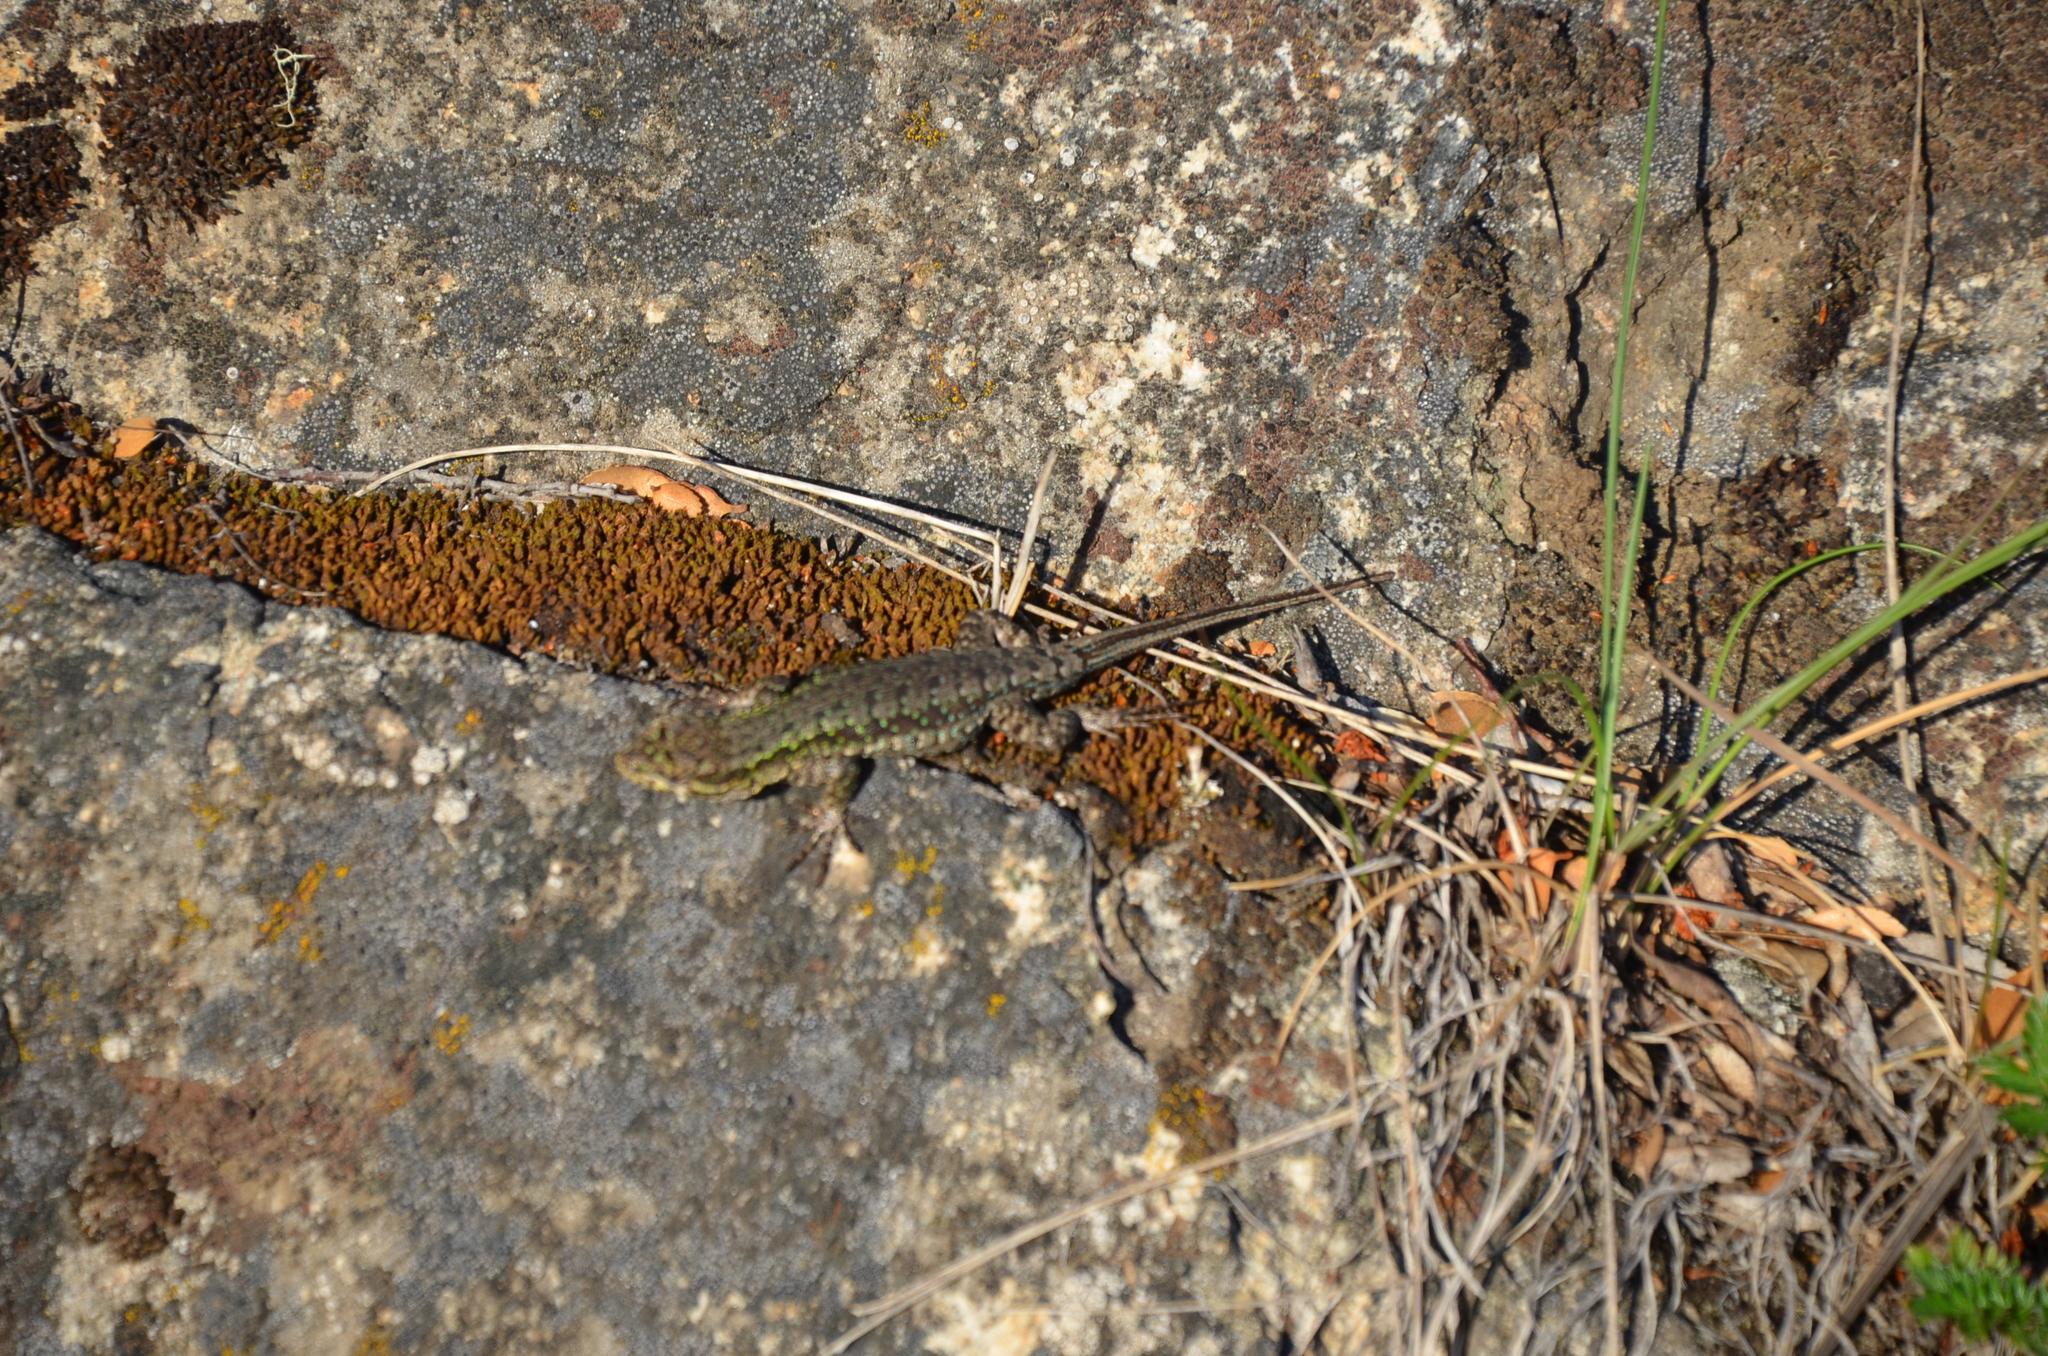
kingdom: Animalia
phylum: Chordata
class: Squamata
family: Liolaemidae
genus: Liolaemus
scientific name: Liolaemus tenuis
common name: Thin tree iguana
